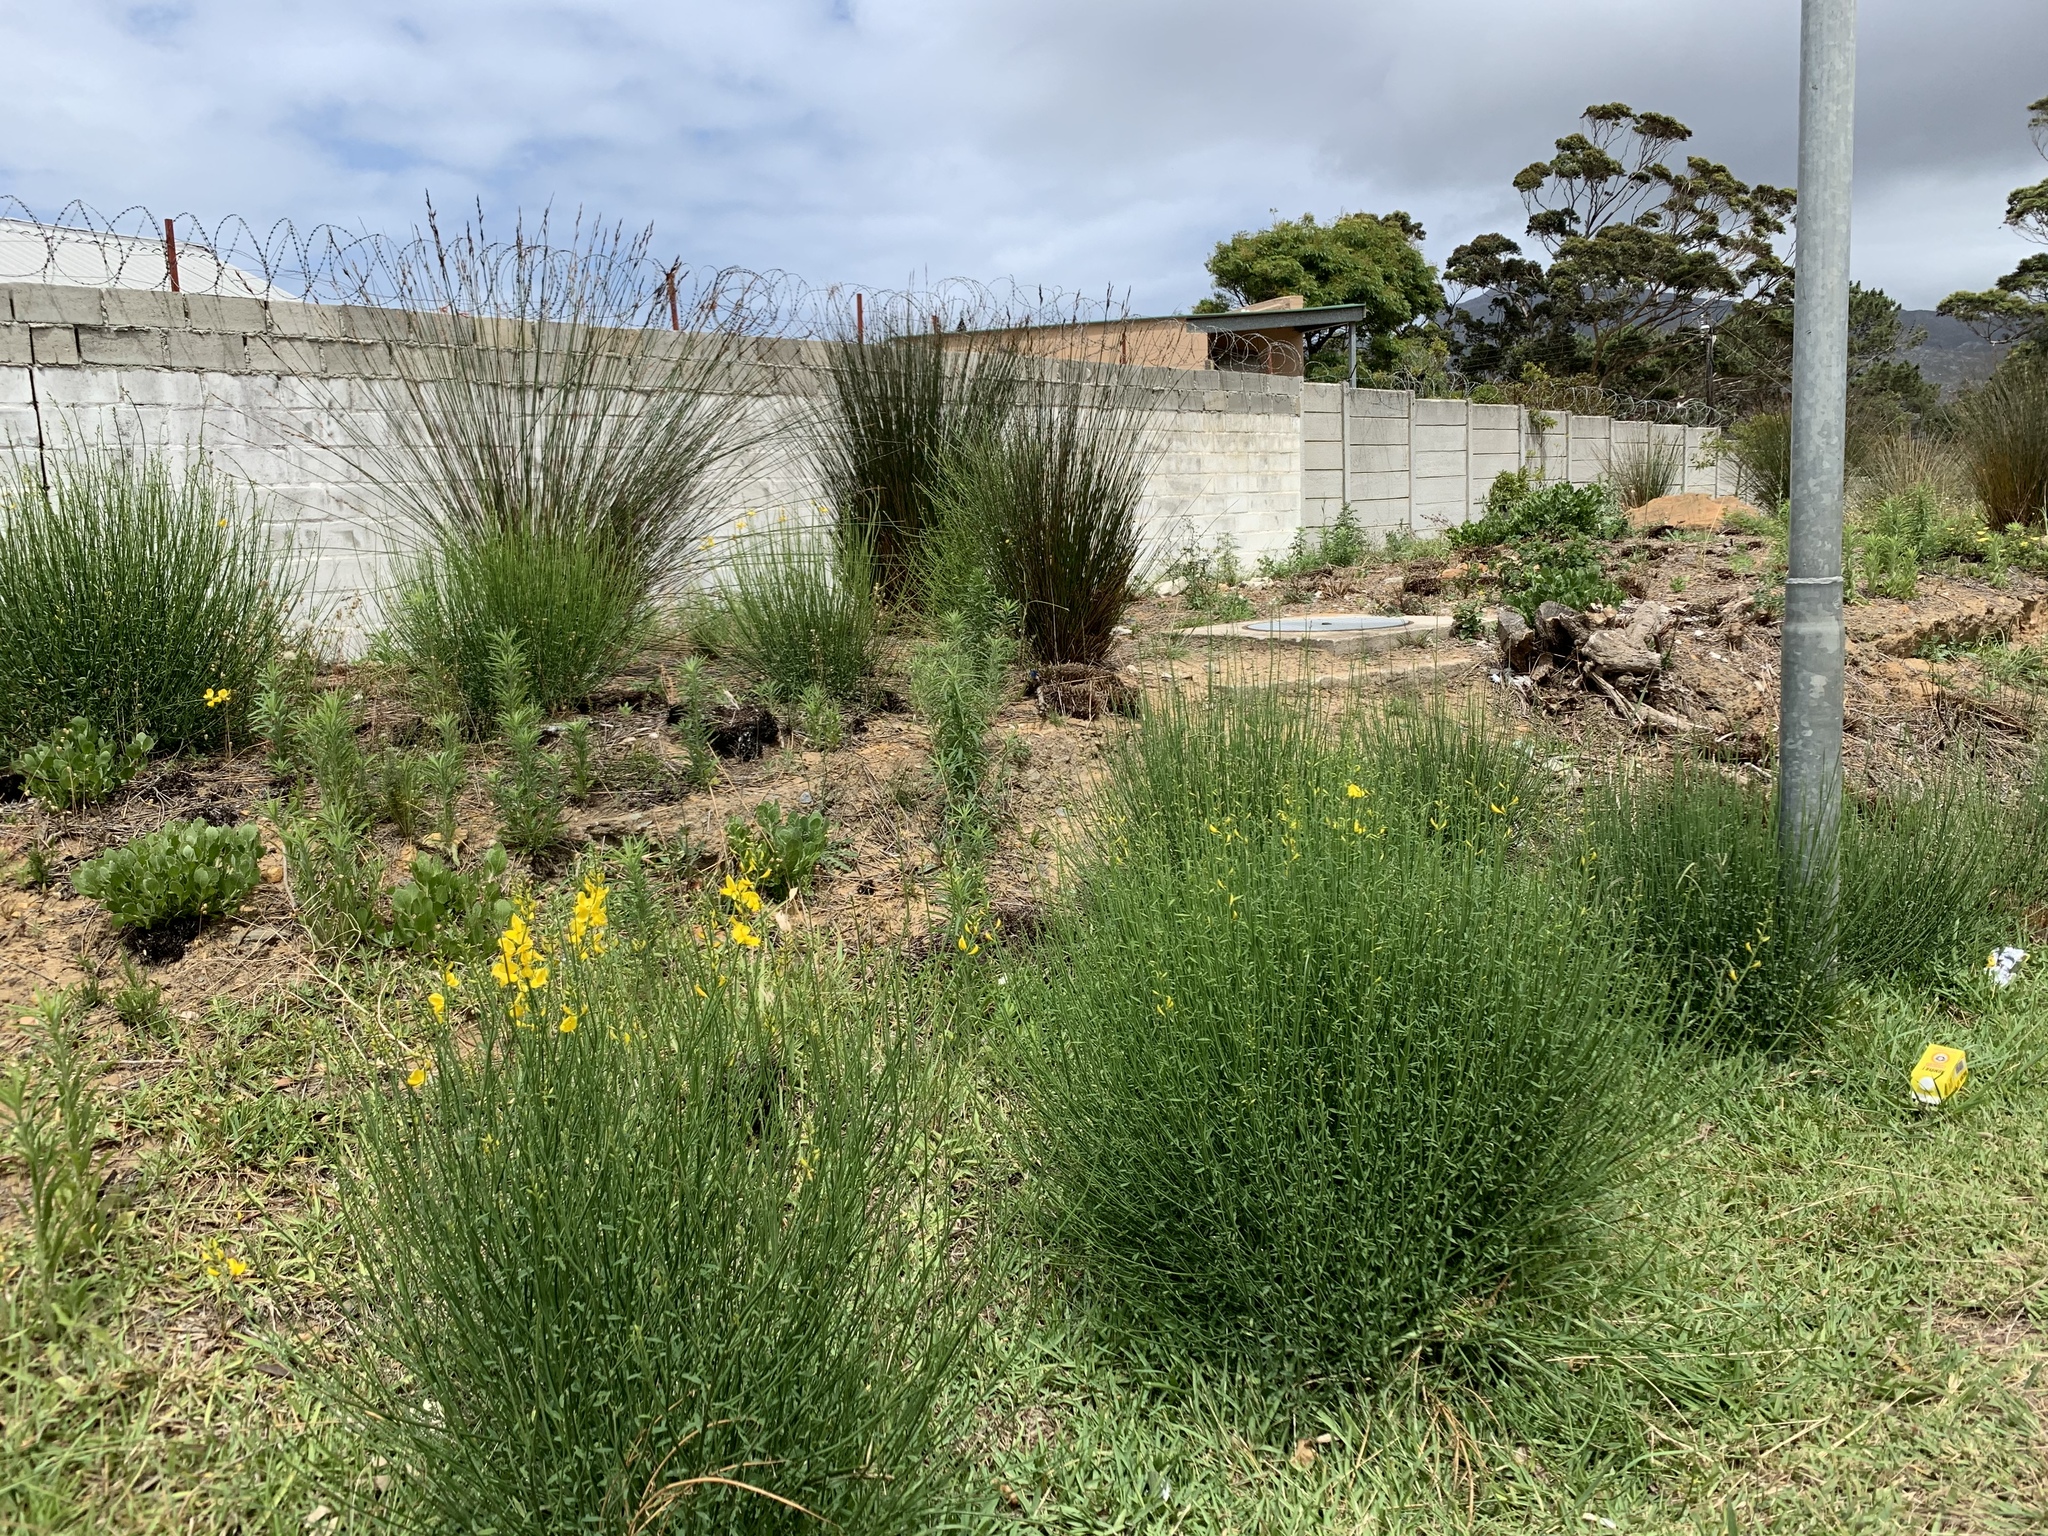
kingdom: Plantae
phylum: Tracheophyta
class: Magnoliopsida
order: Fabales
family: Fabaceae
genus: Spartium
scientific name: Spartium junceum
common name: Spanish broom
